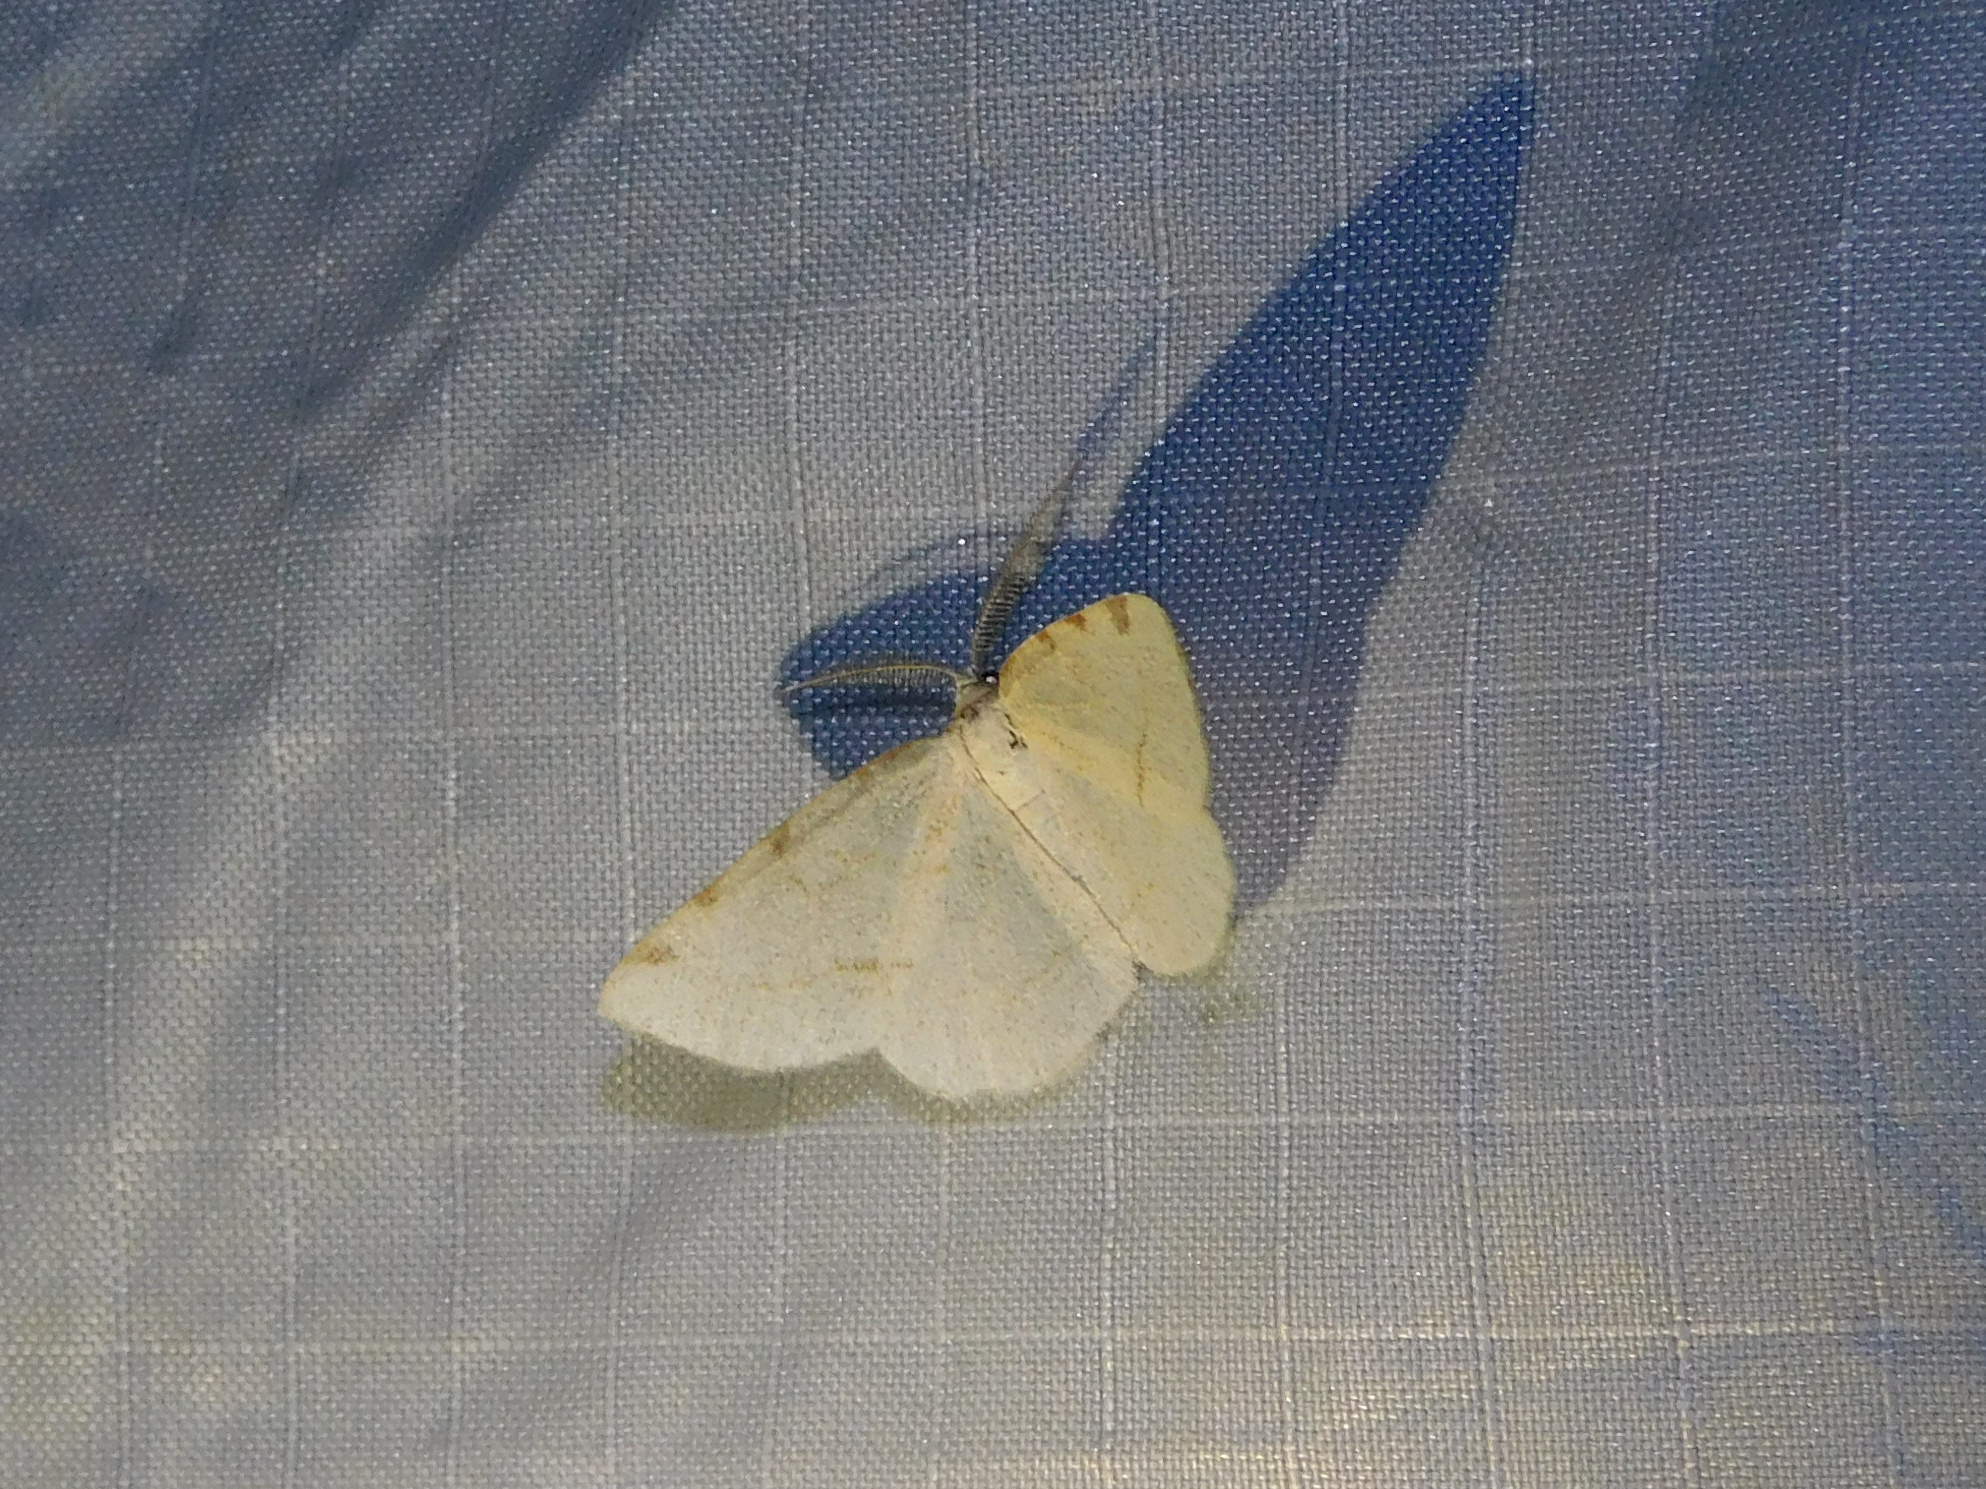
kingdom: Animalia
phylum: Arthropoda
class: Insecta
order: Lepidoptera
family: Geometridae
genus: Stegania
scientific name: Stegania trimaculata
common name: Dorset cream wave
